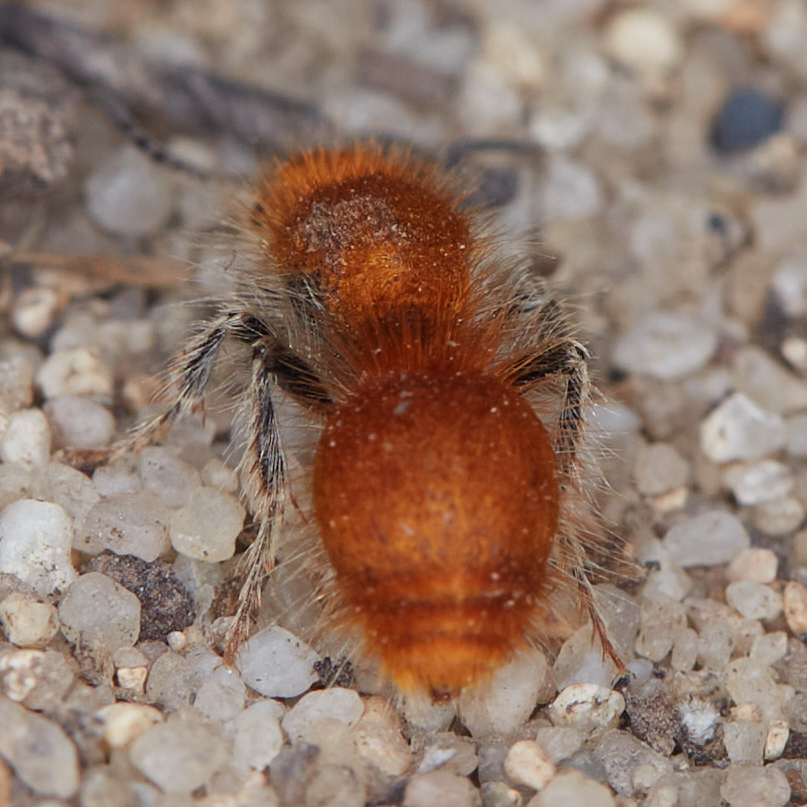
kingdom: Animalia
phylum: Arthropoda
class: Insecta
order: Hymenoptera
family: Mutillidae
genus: Odontophotopsis
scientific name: Odontophotopsis exogyra
